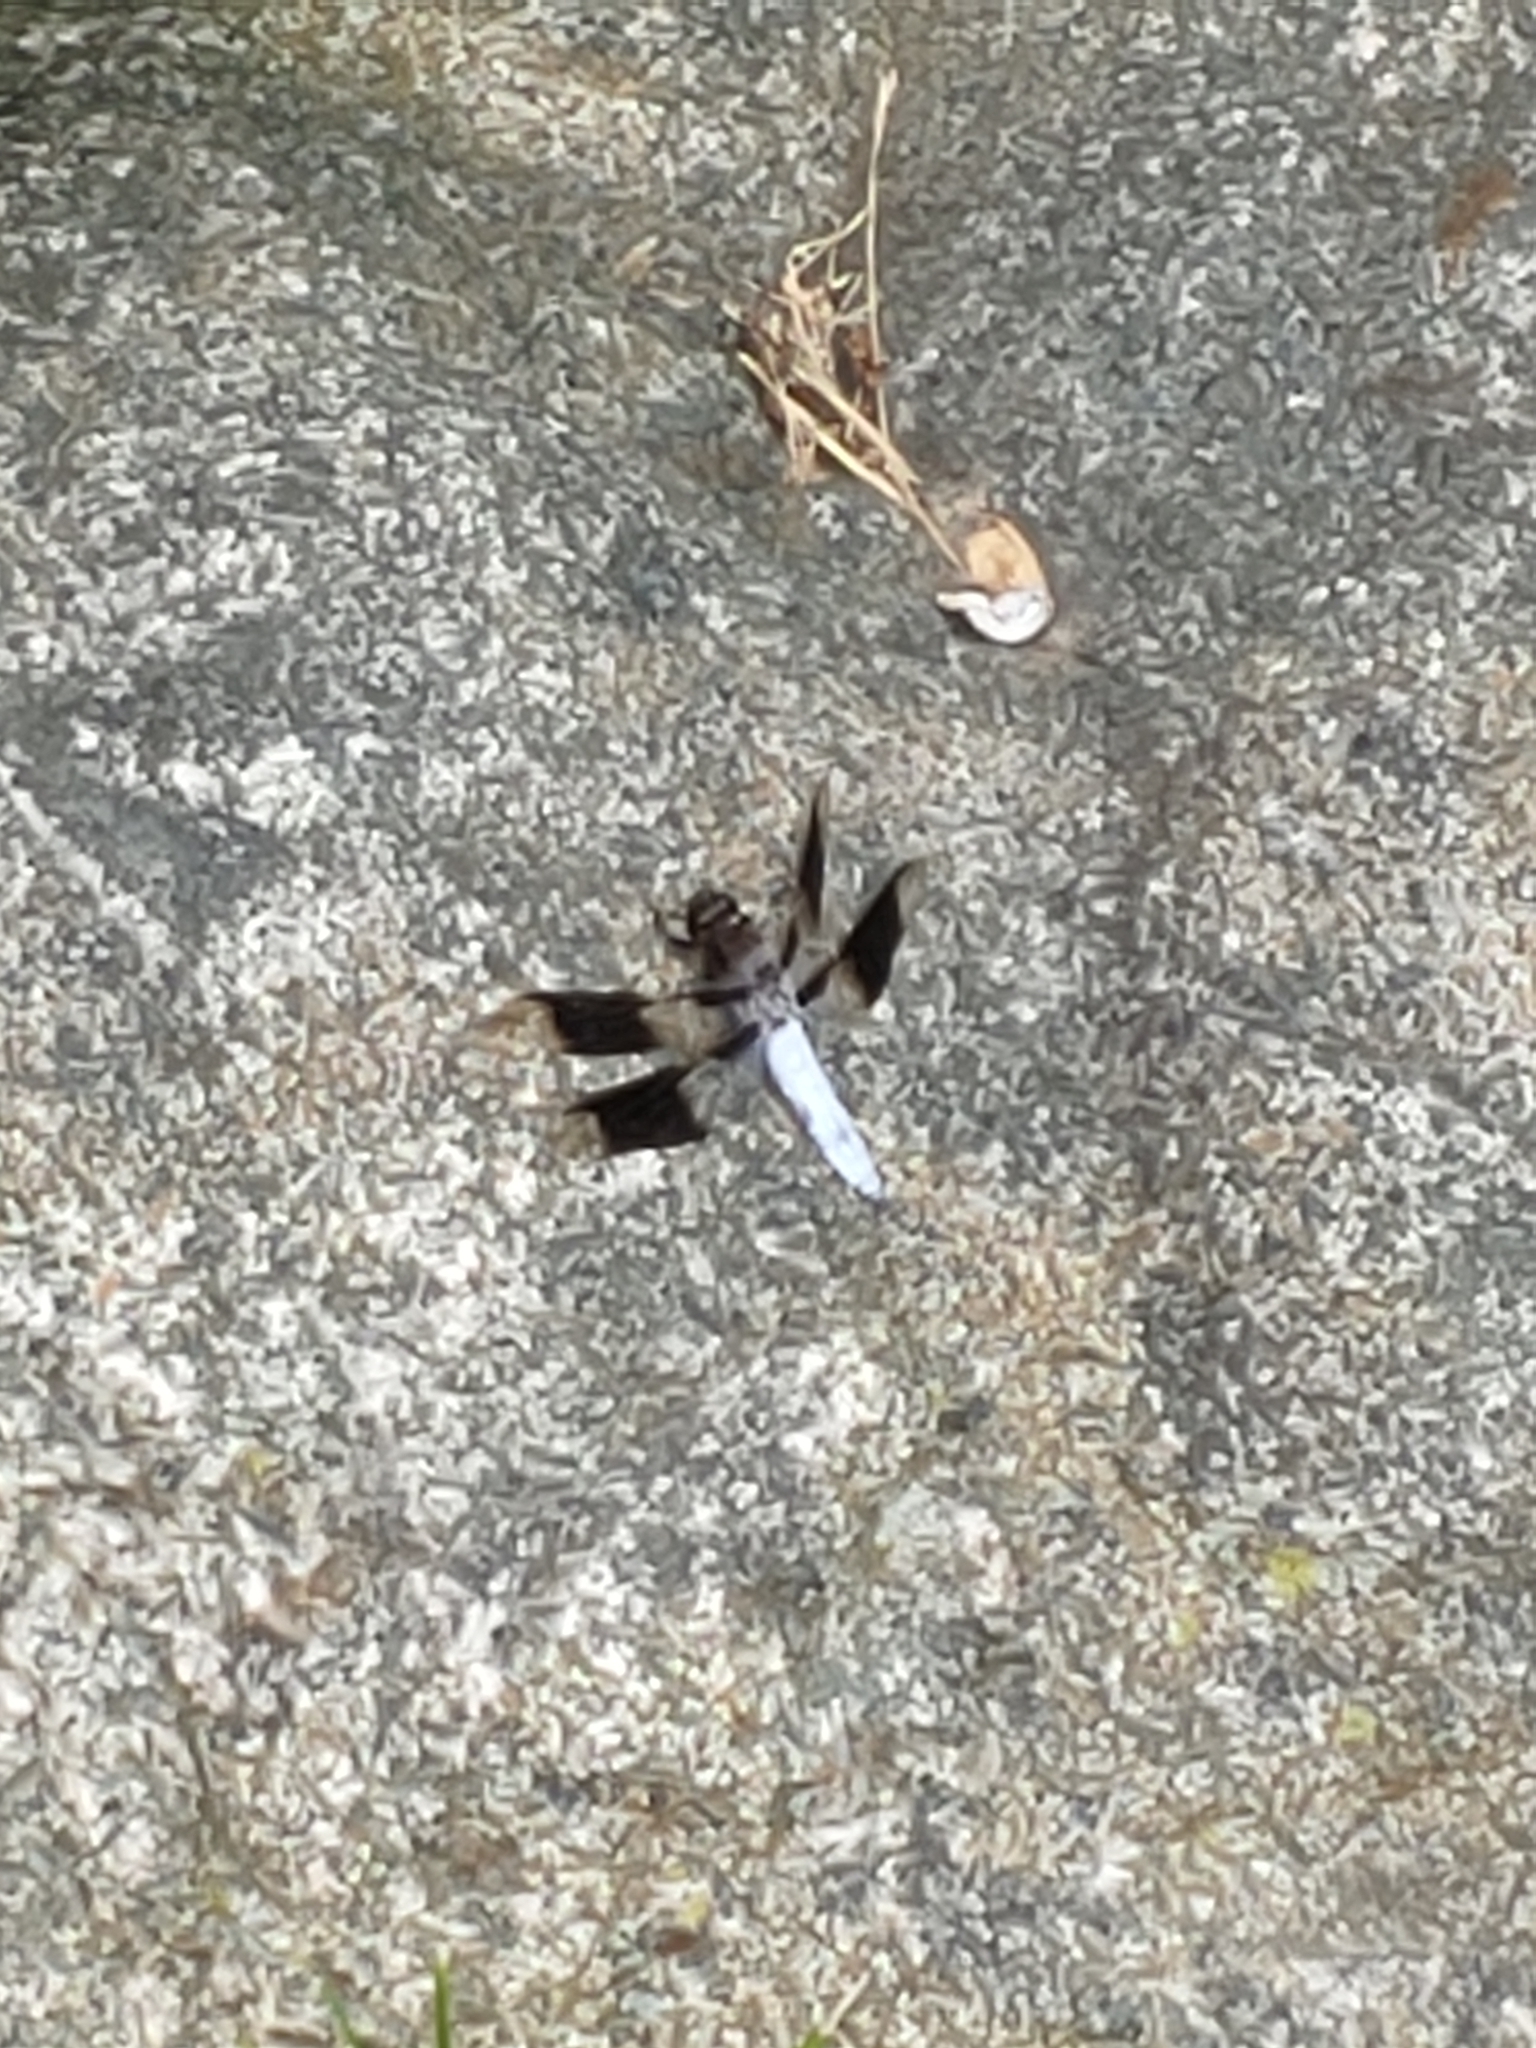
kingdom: Animalia
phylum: Arthropoda
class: Insecta
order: Odonata
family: Libellulidae
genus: Plathemis
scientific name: Plathemis lydia
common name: Common whitetail
